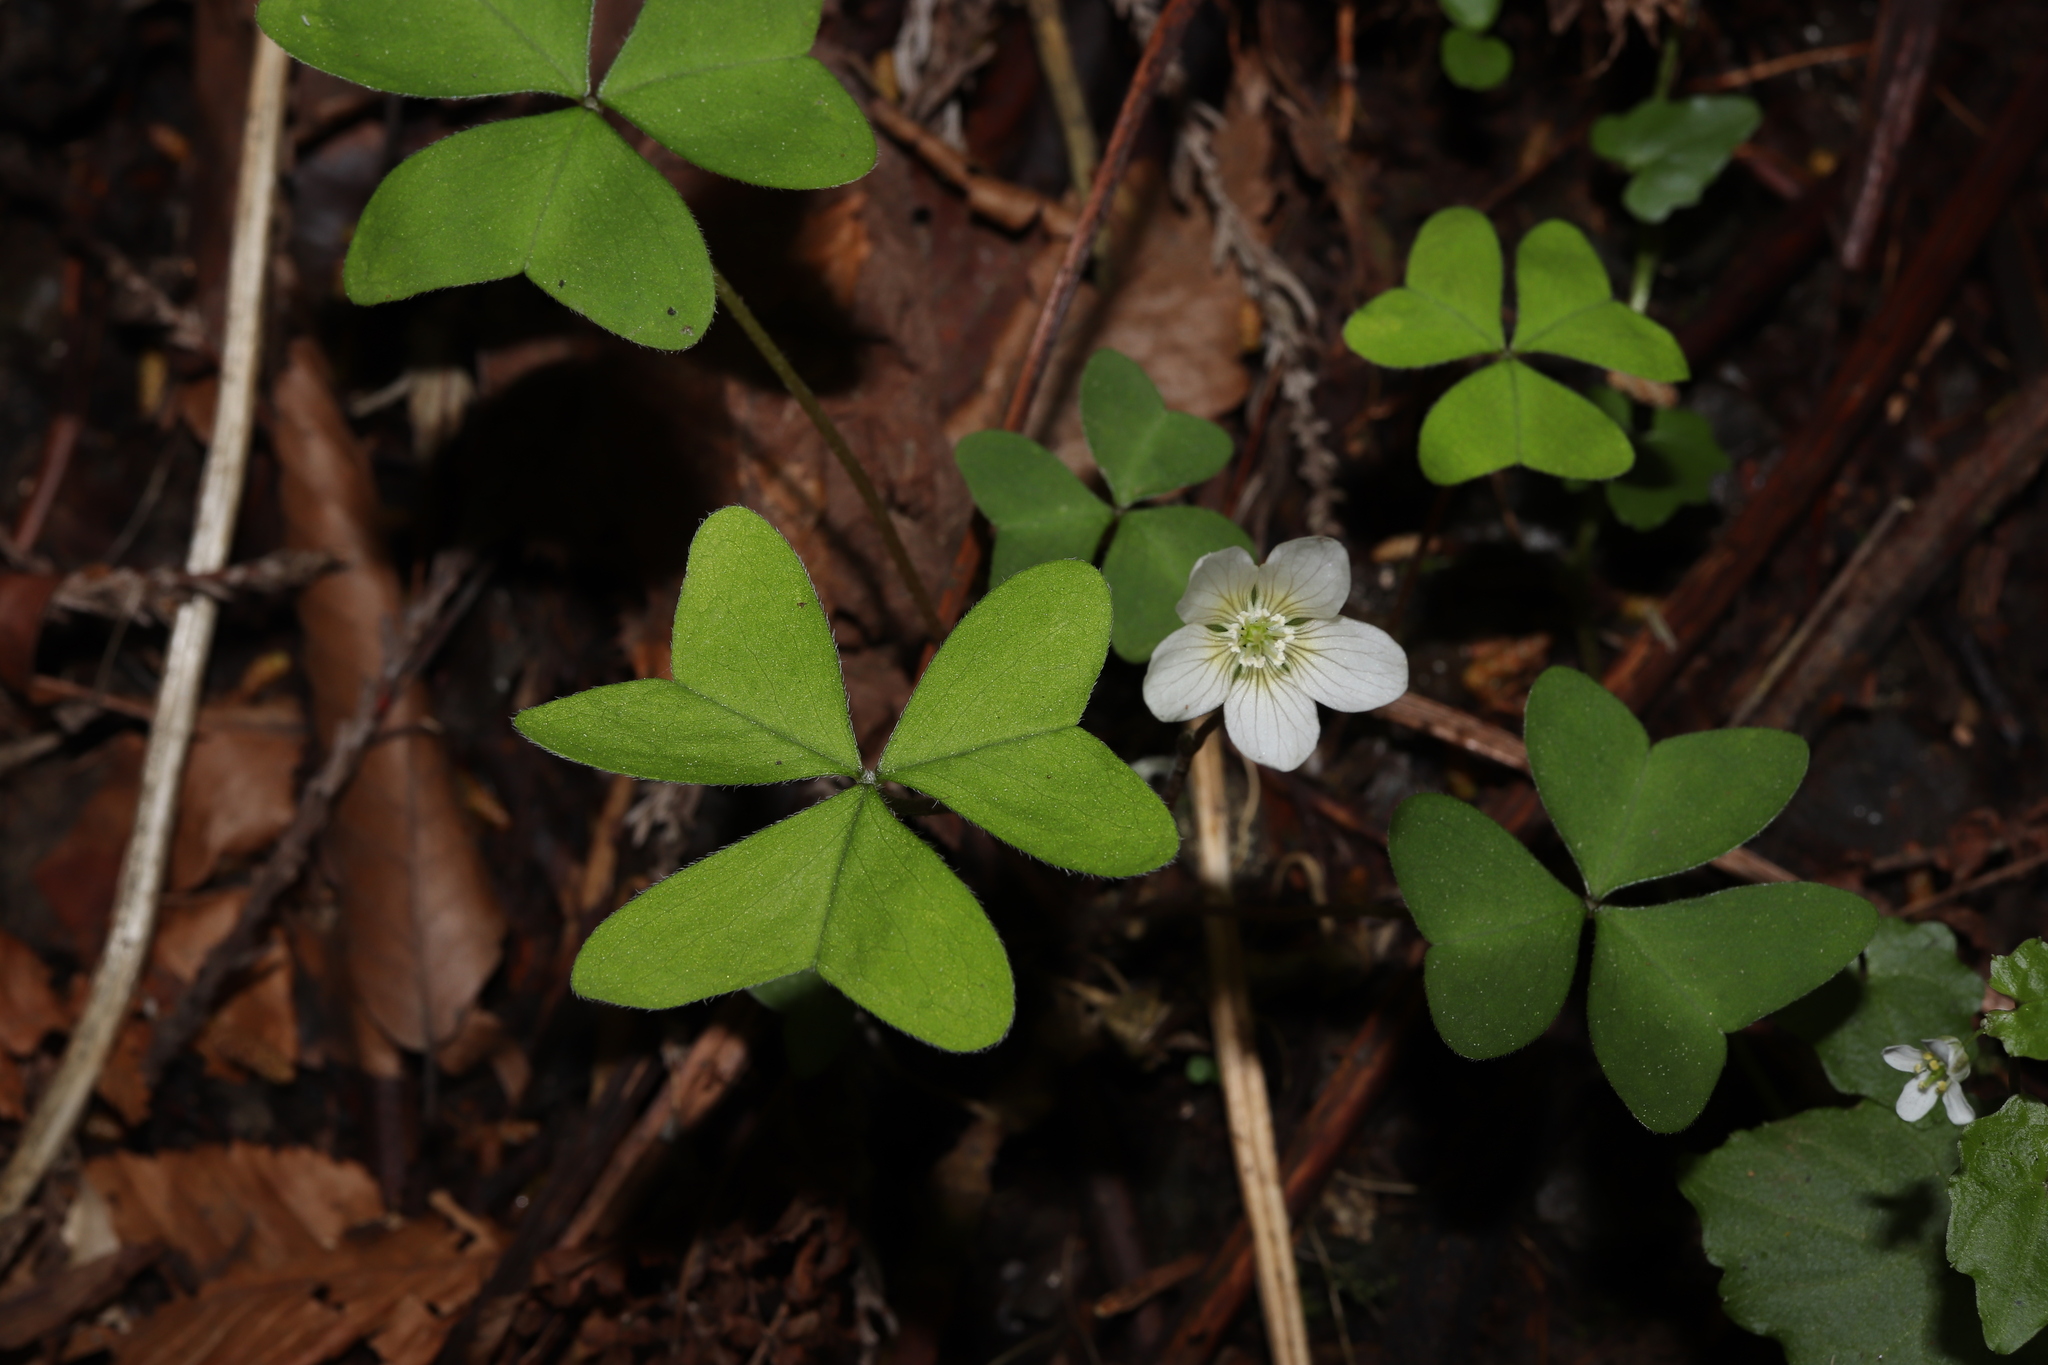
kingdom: Plantae
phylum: Tracheophyta
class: Magnoliopsida
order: Oxalidales
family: Oxalidaceae
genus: Oxalis
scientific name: Oxalis nipponica
